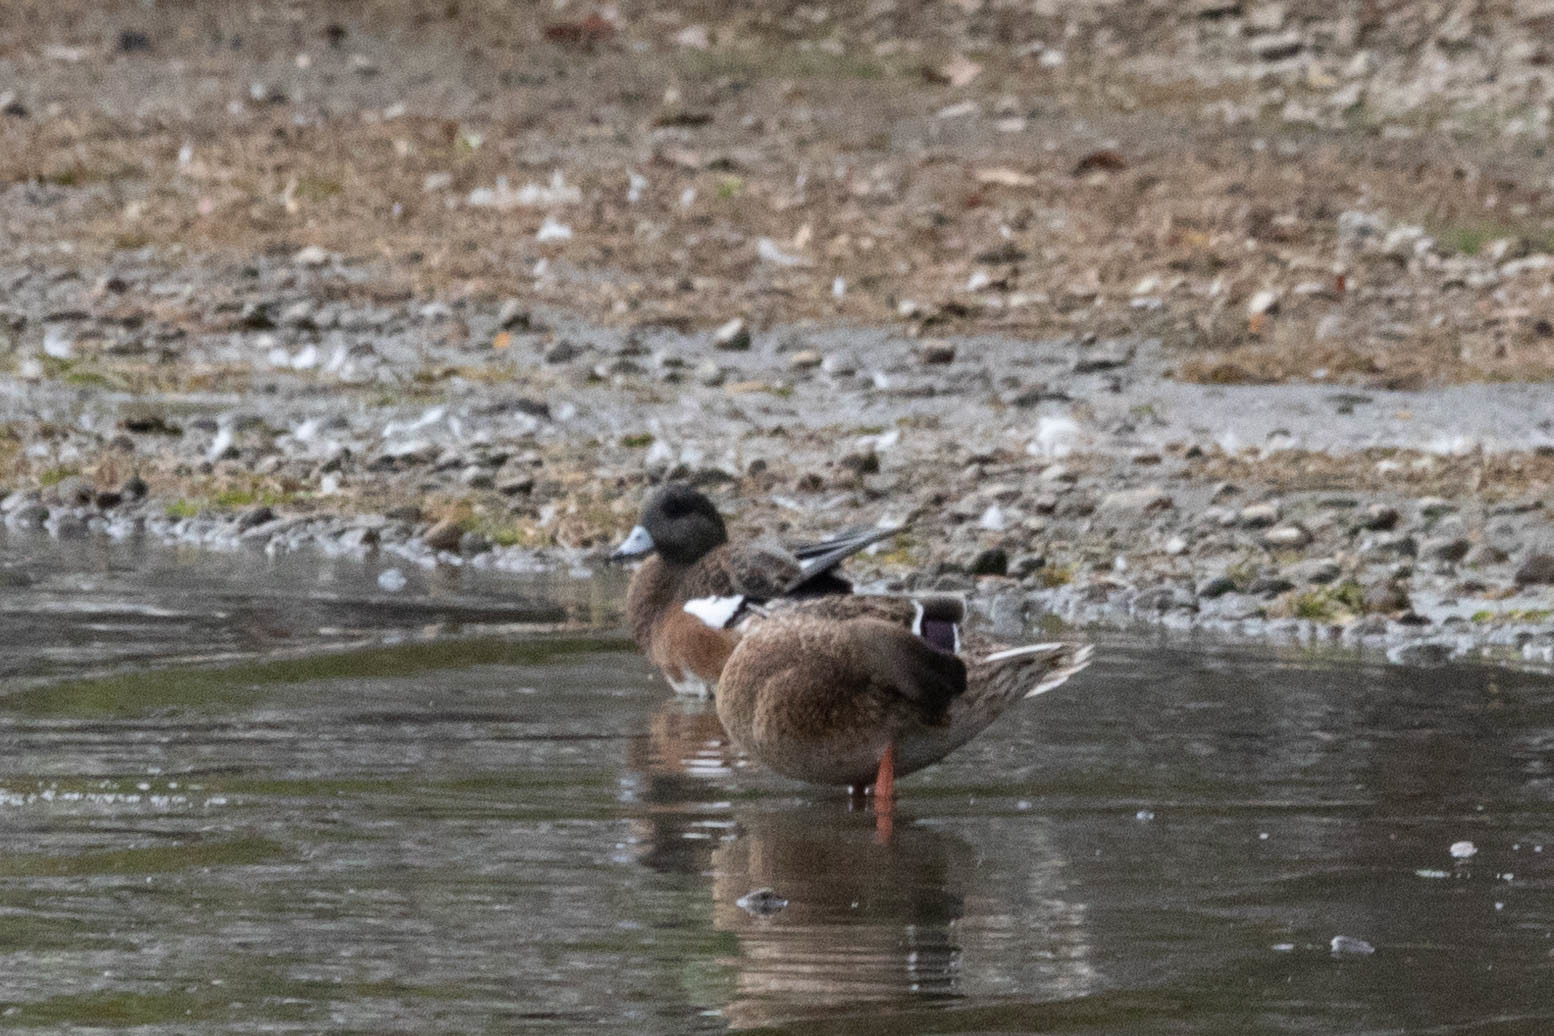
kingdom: Animalia
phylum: Chordata
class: Aves
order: Anseriformes
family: Anatidae
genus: Mareca
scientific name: Mareca americana
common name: American wigeon
